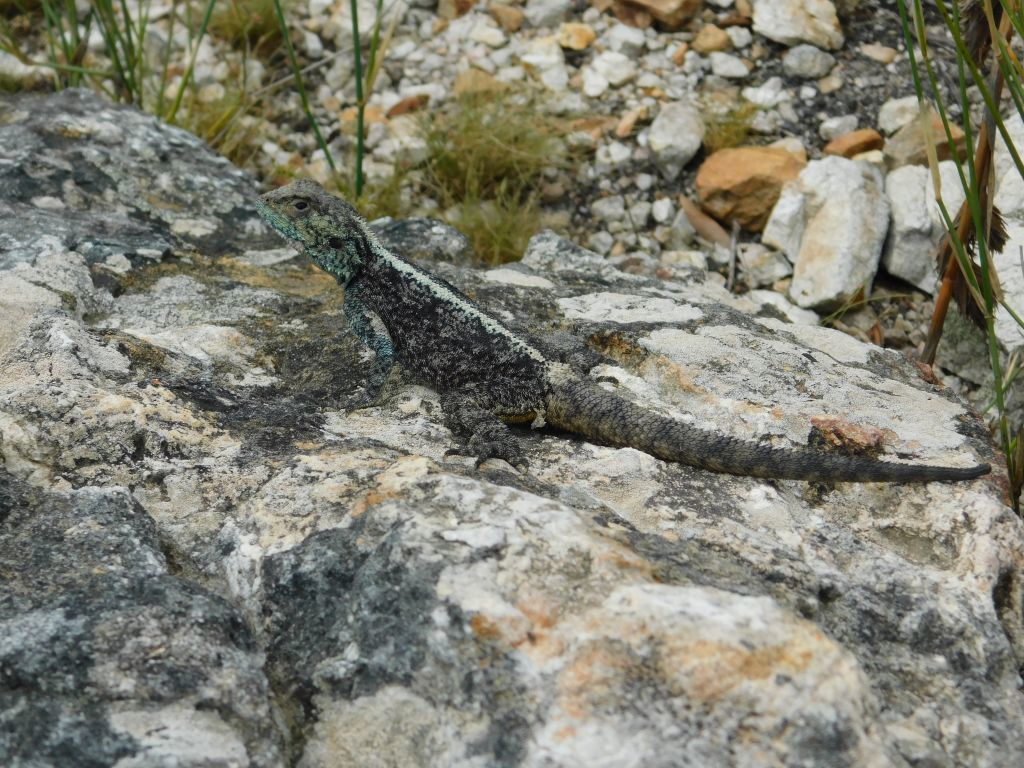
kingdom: Animalia
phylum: Chordata
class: Squamata
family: Agamidae
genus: Agama
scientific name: Agama atra
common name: Southern african rock agama
